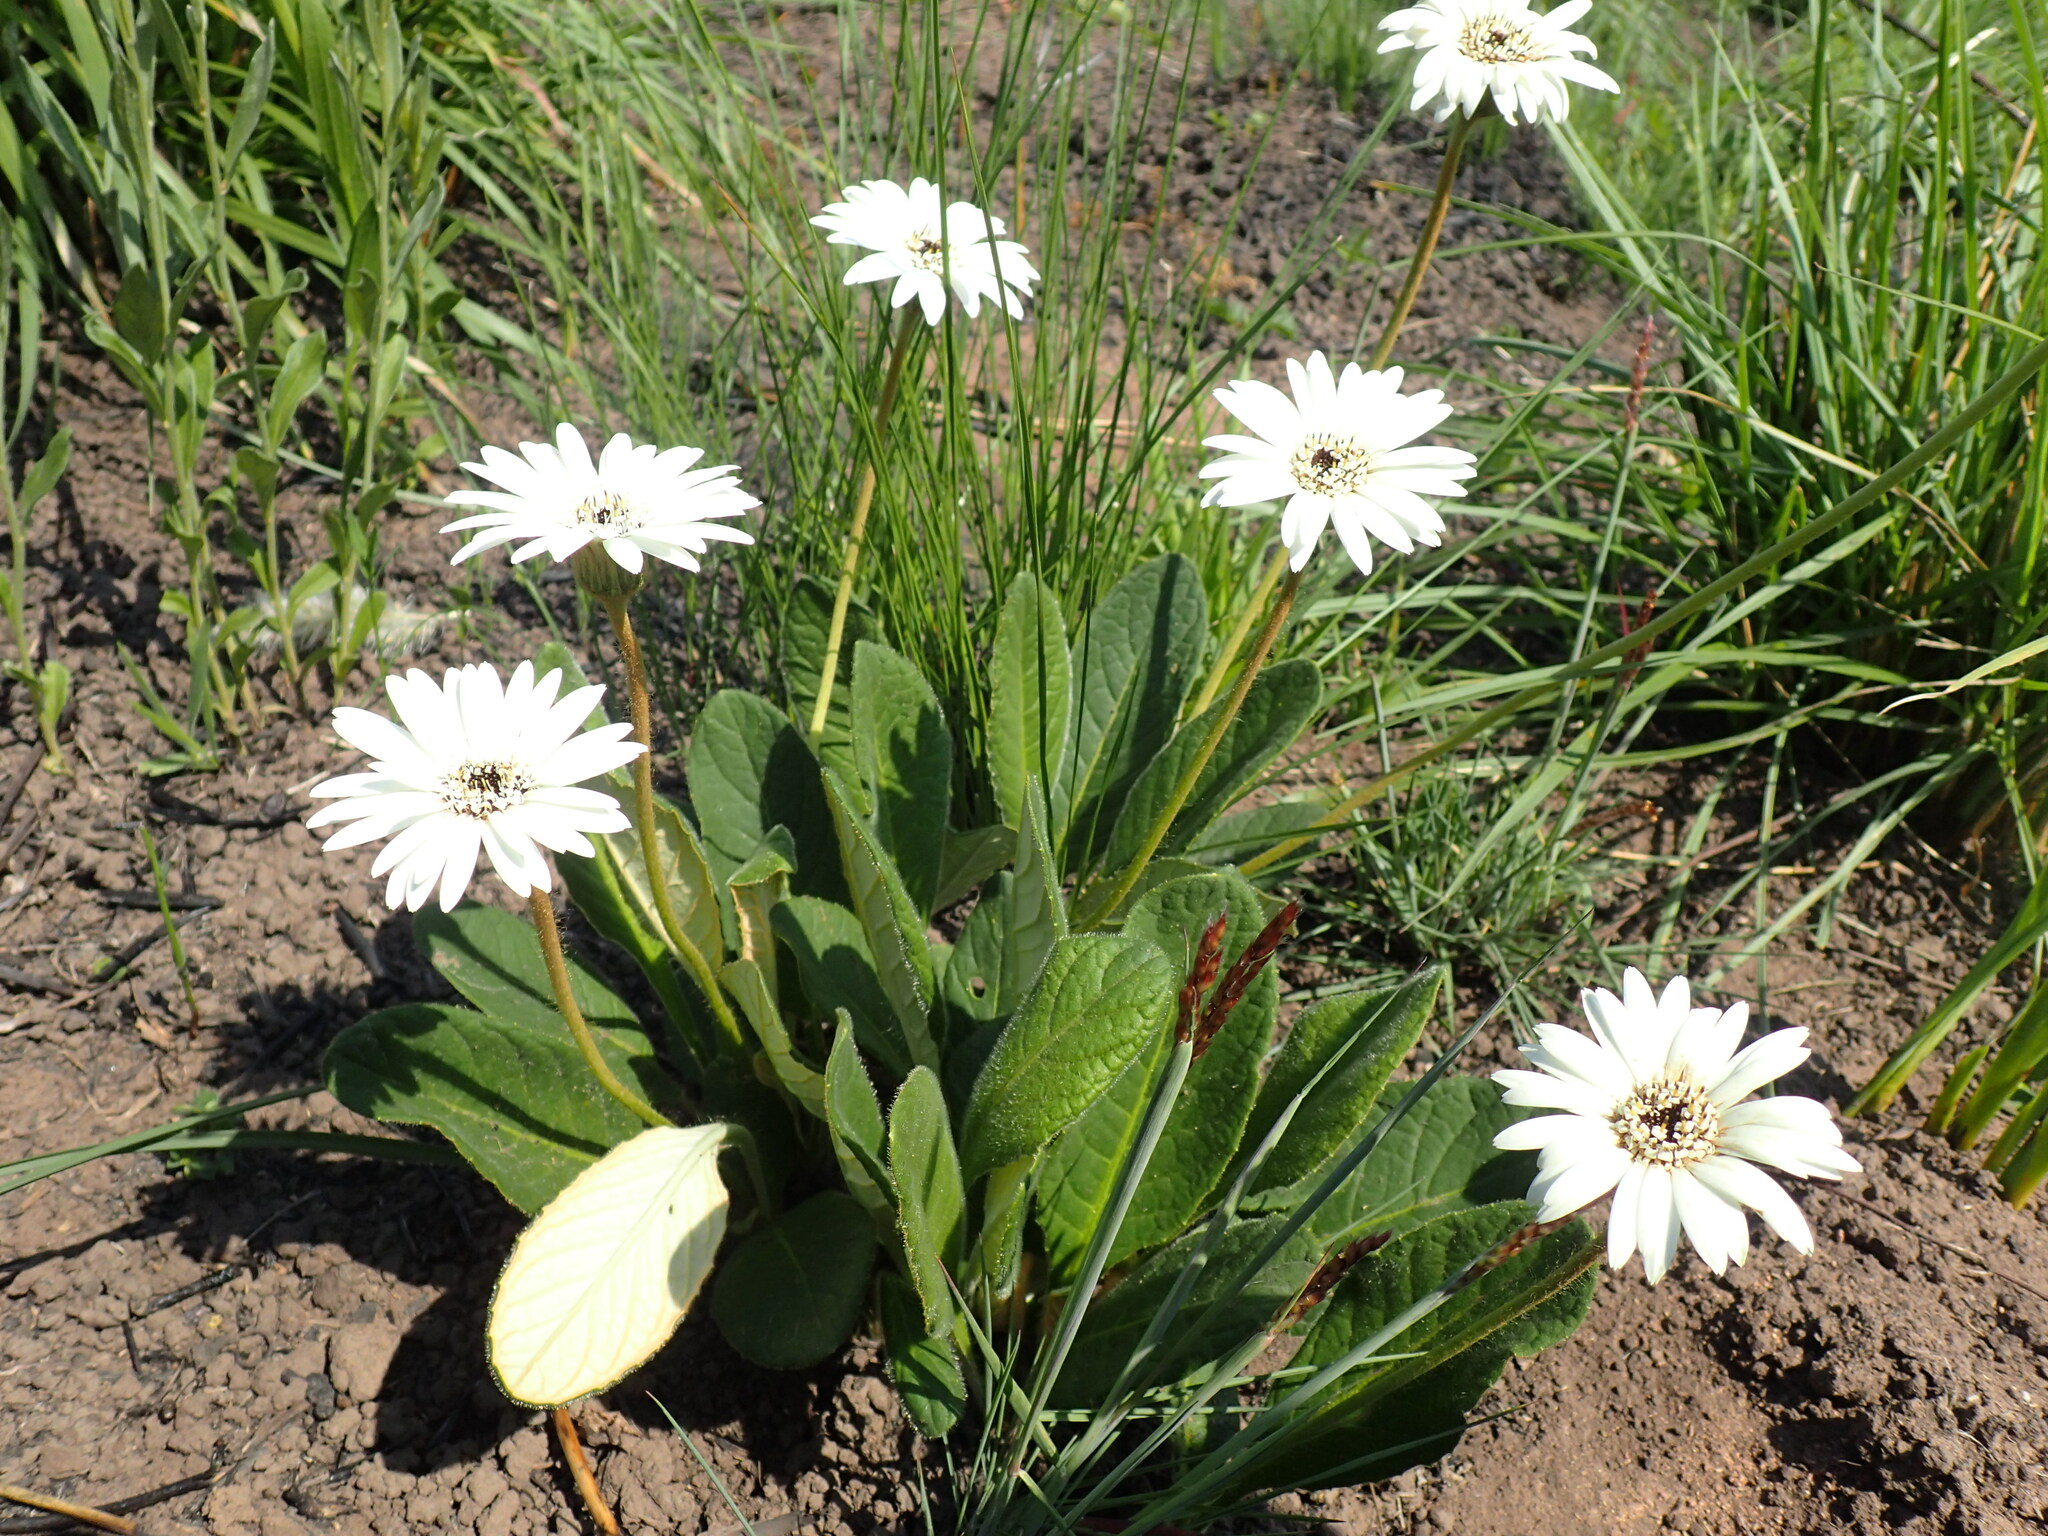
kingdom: Plantae
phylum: Tracheophyta
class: Magnoliopsida
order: Asterales
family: Asteraceae
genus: Gerbera
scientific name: Gerbera ambigua
